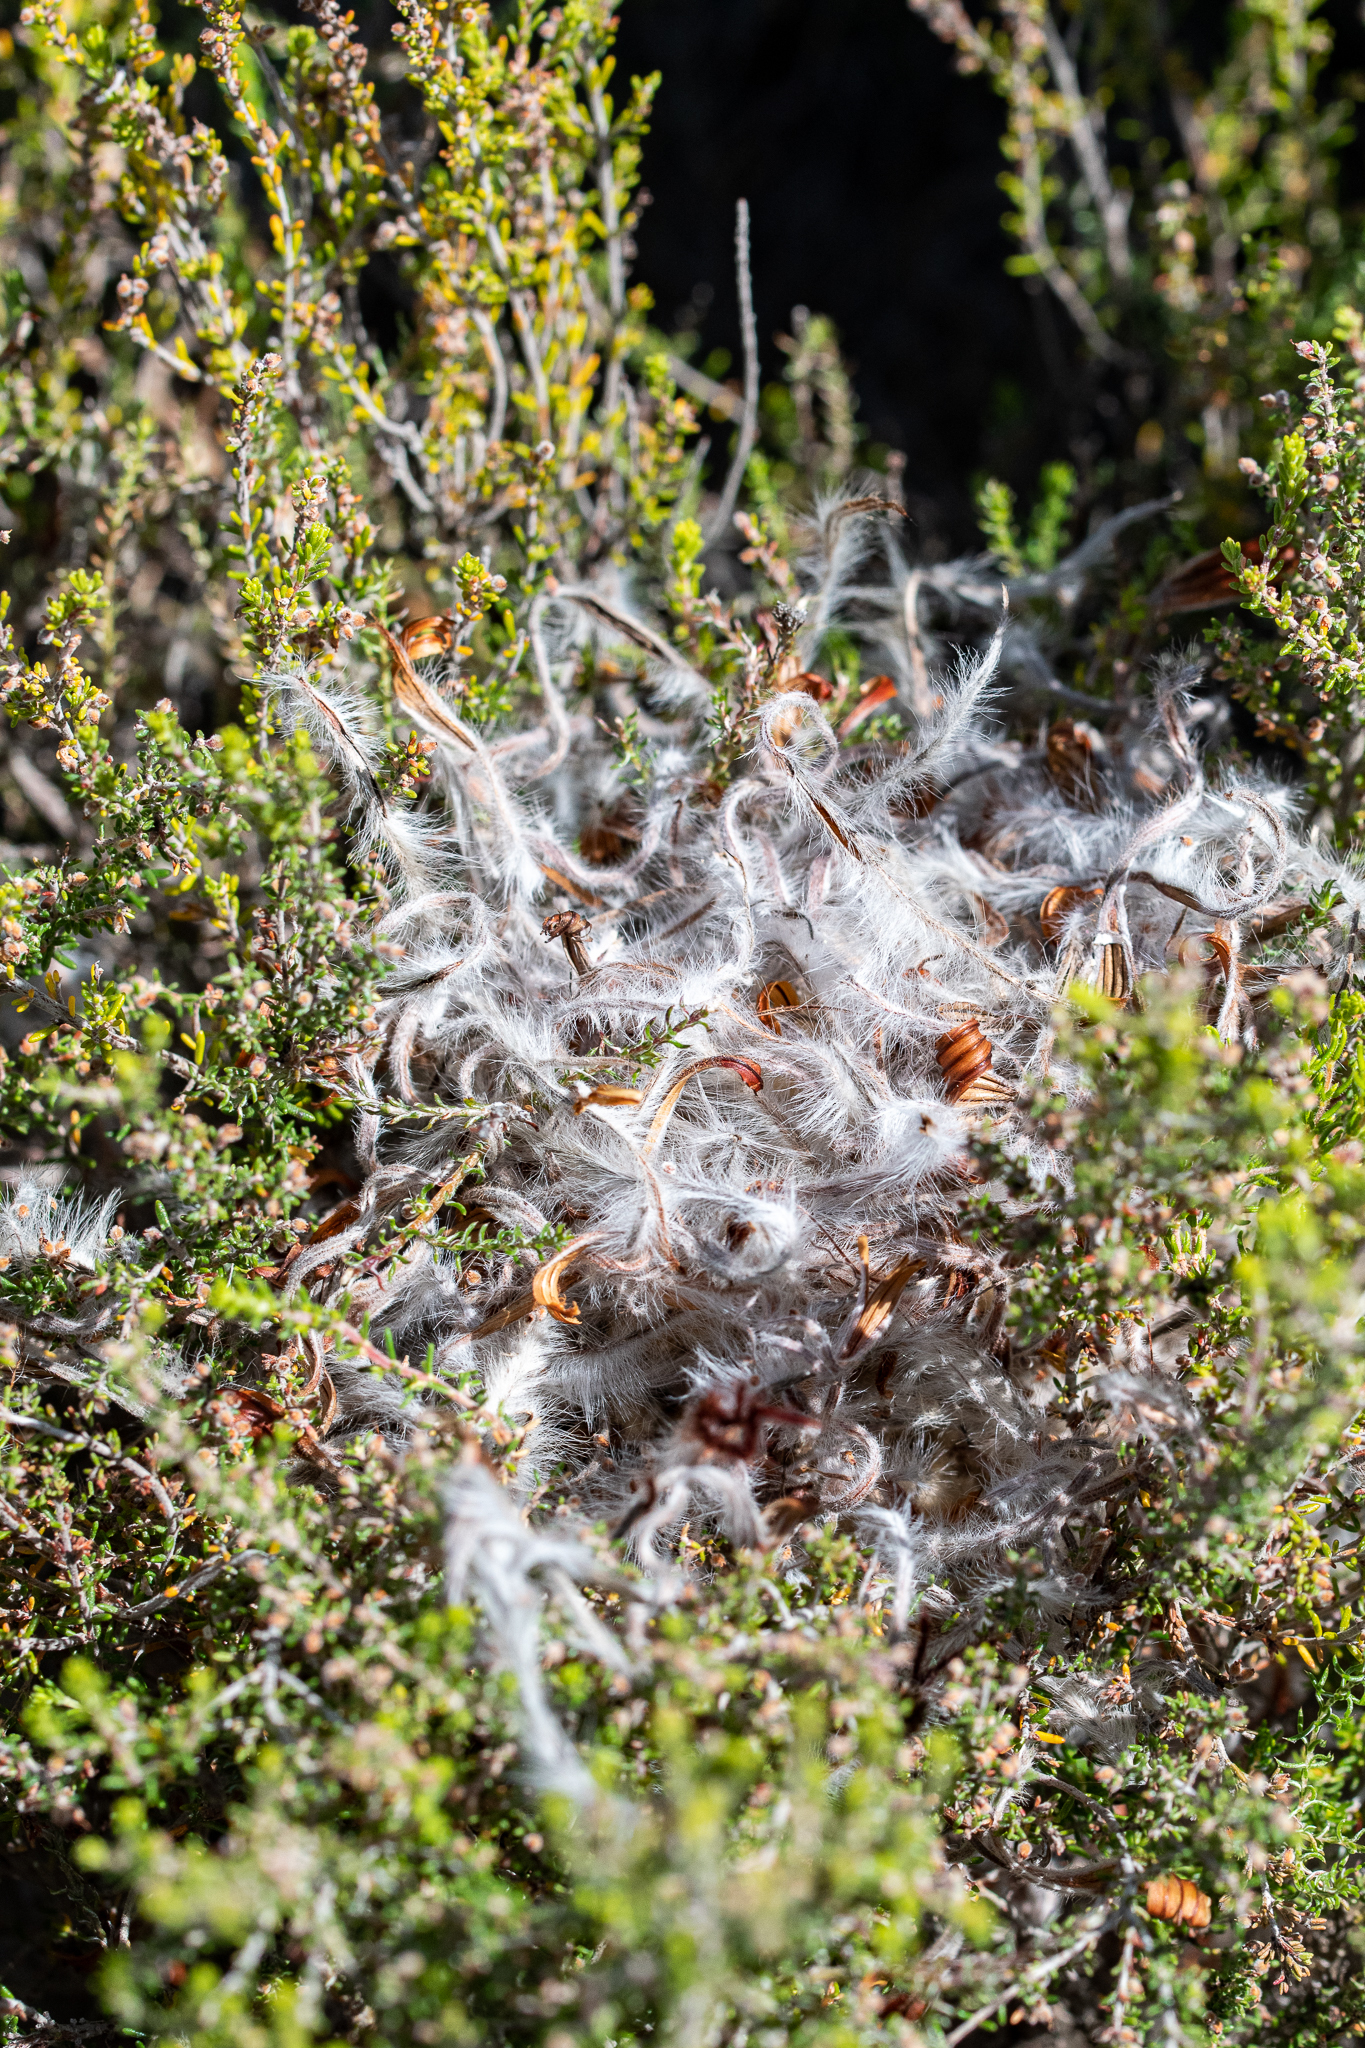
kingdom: Plantae
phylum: Tracheophyta
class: Magnoliopsida
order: Proteales
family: Proteaceae
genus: Protea
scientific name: Protea longifolia
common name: Long-leaf sugarbush
